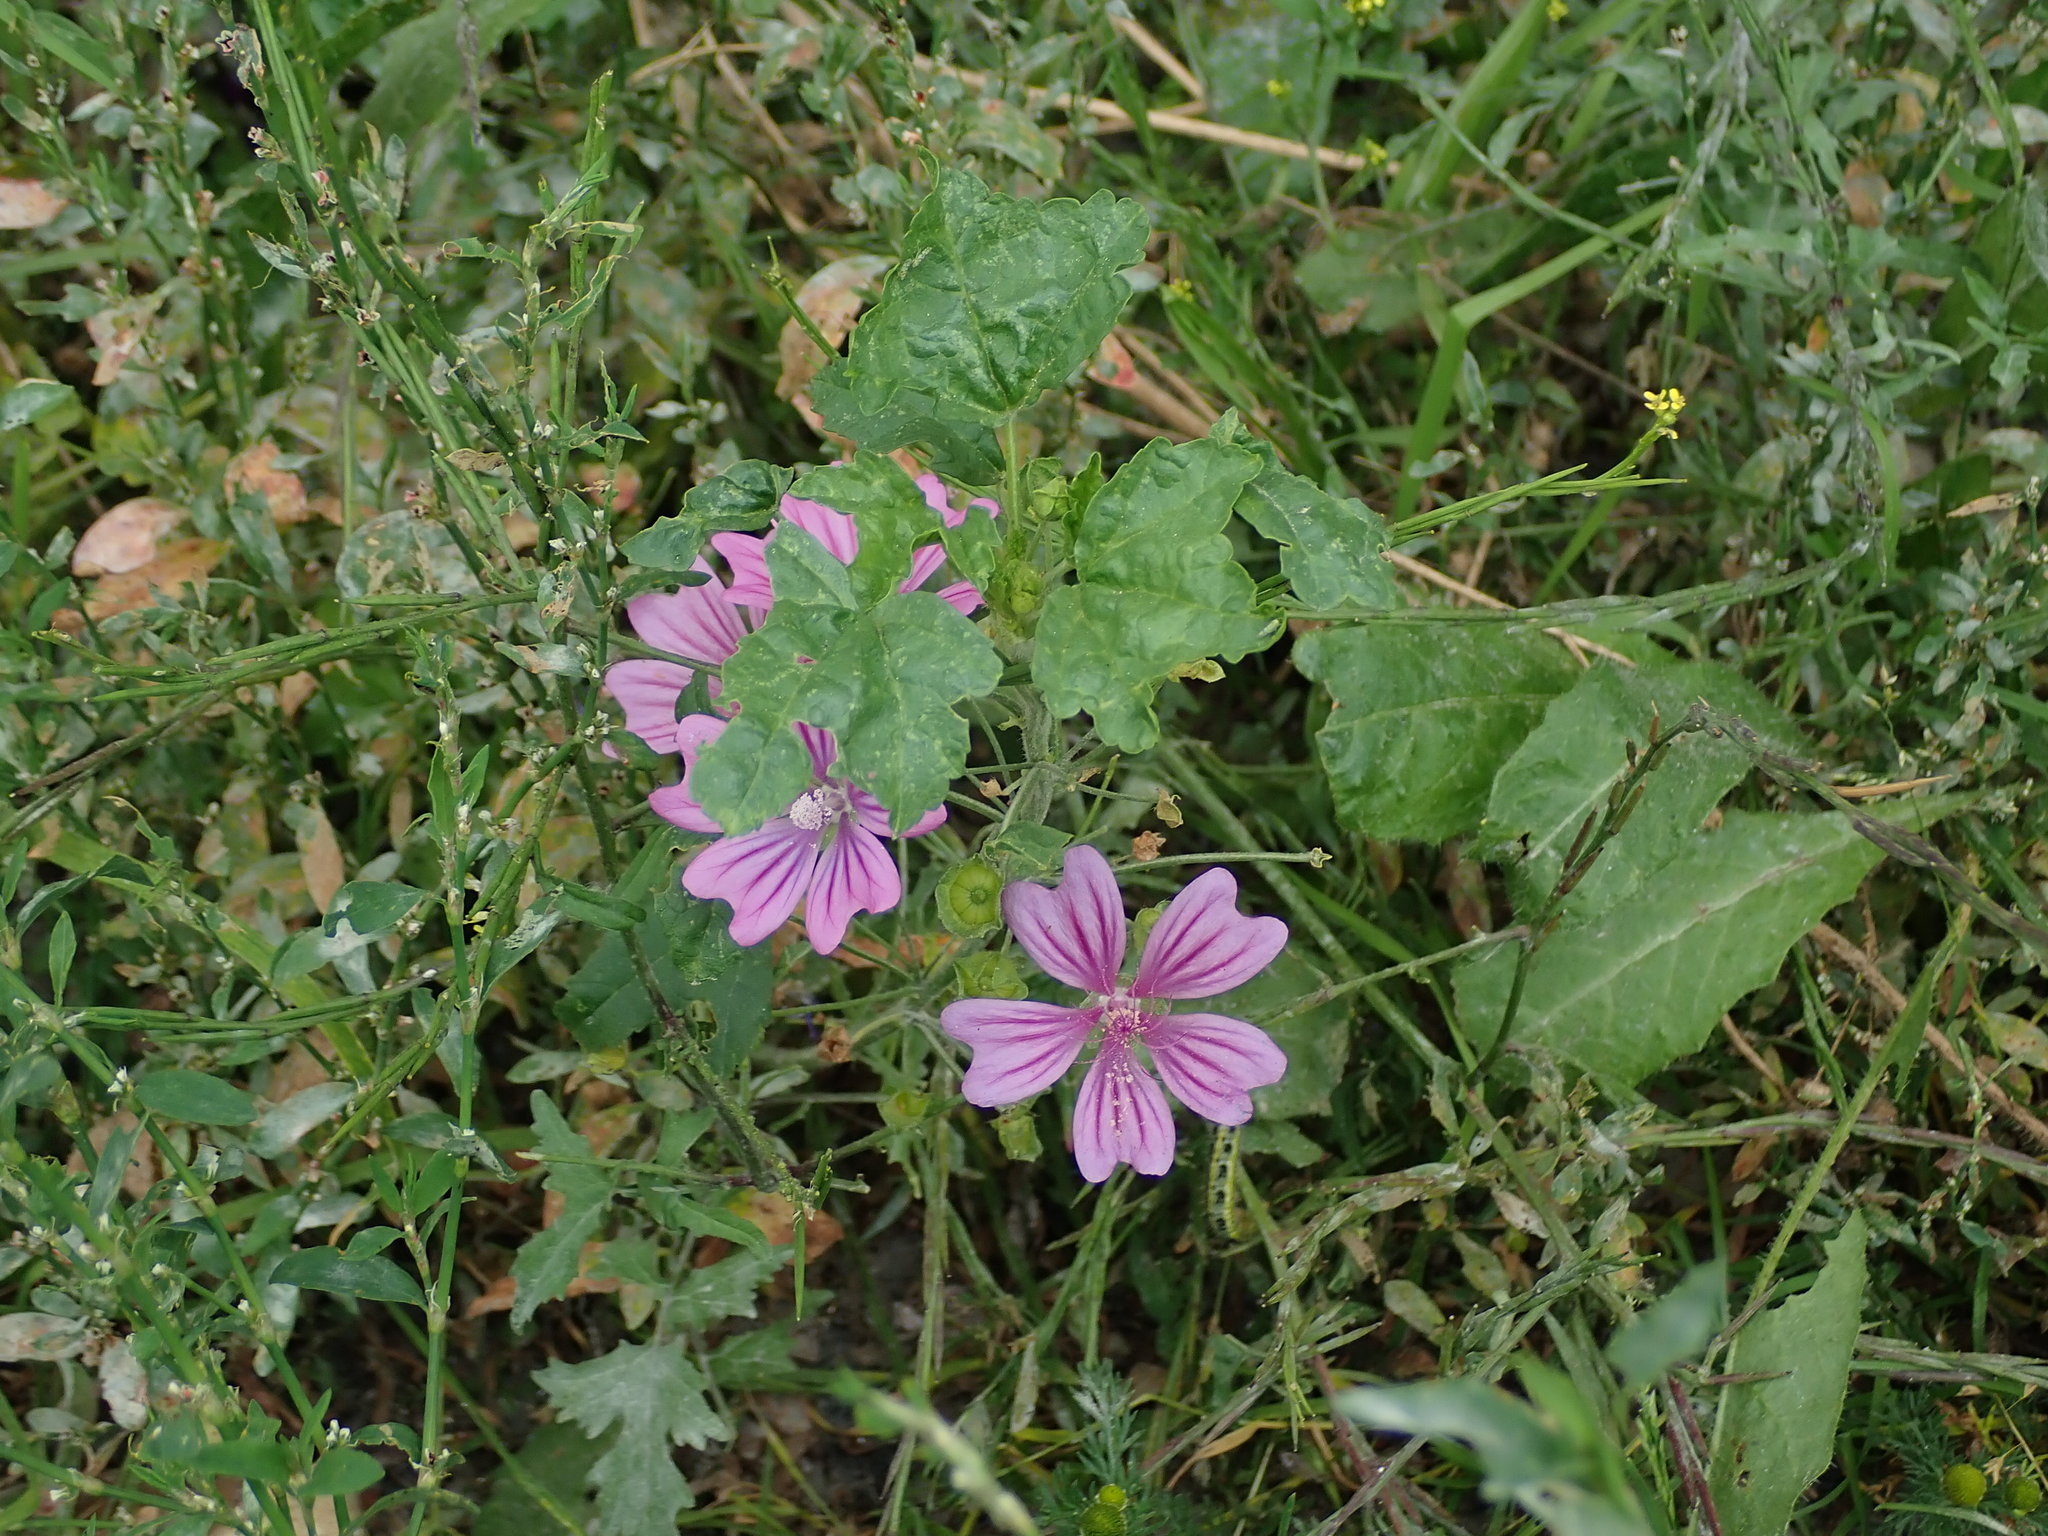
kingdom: Plantae
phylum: Tracheophyta
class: Magnoliopsida
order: Malvales
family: Malvaceae
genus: Malva
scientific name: Malva sylvestris
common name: Common mallow
